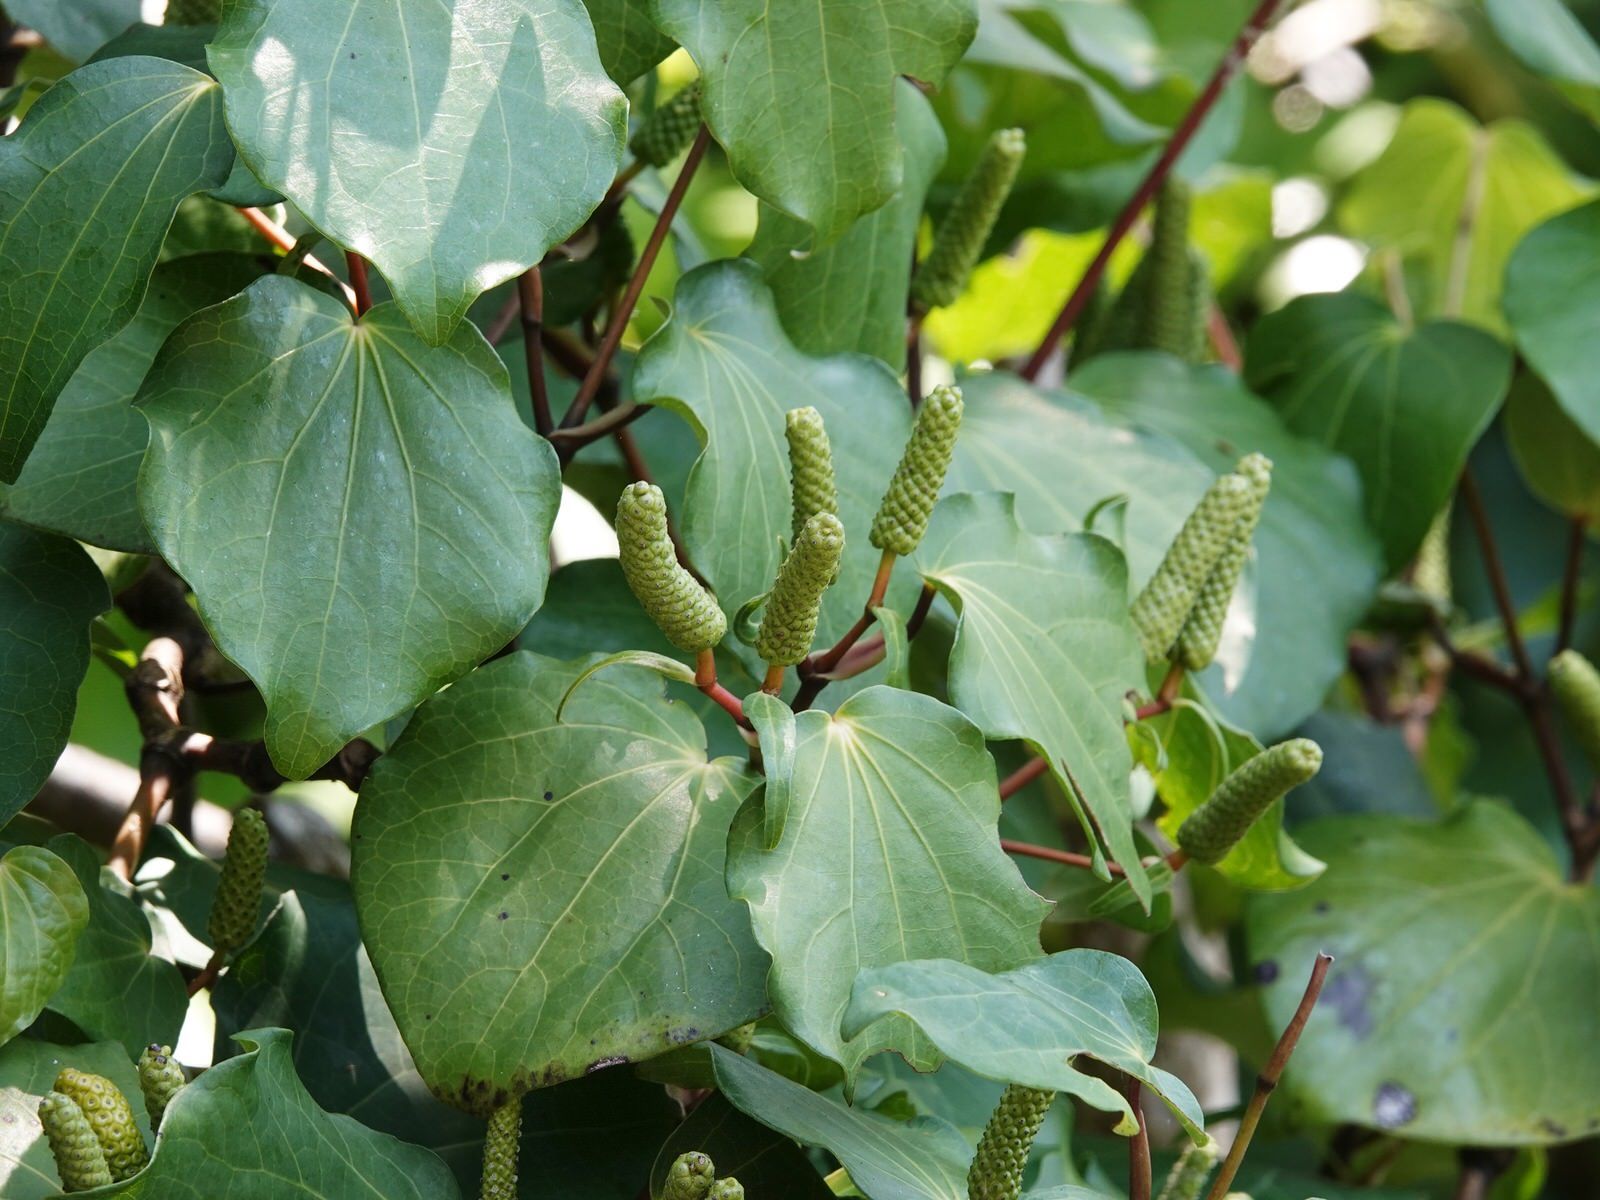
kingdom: Plantae
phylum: Tracheophyta
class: Magnoliopsida
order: Piperales
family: Piperaceae
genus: Macropiper
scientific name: Macropiper excelsum
